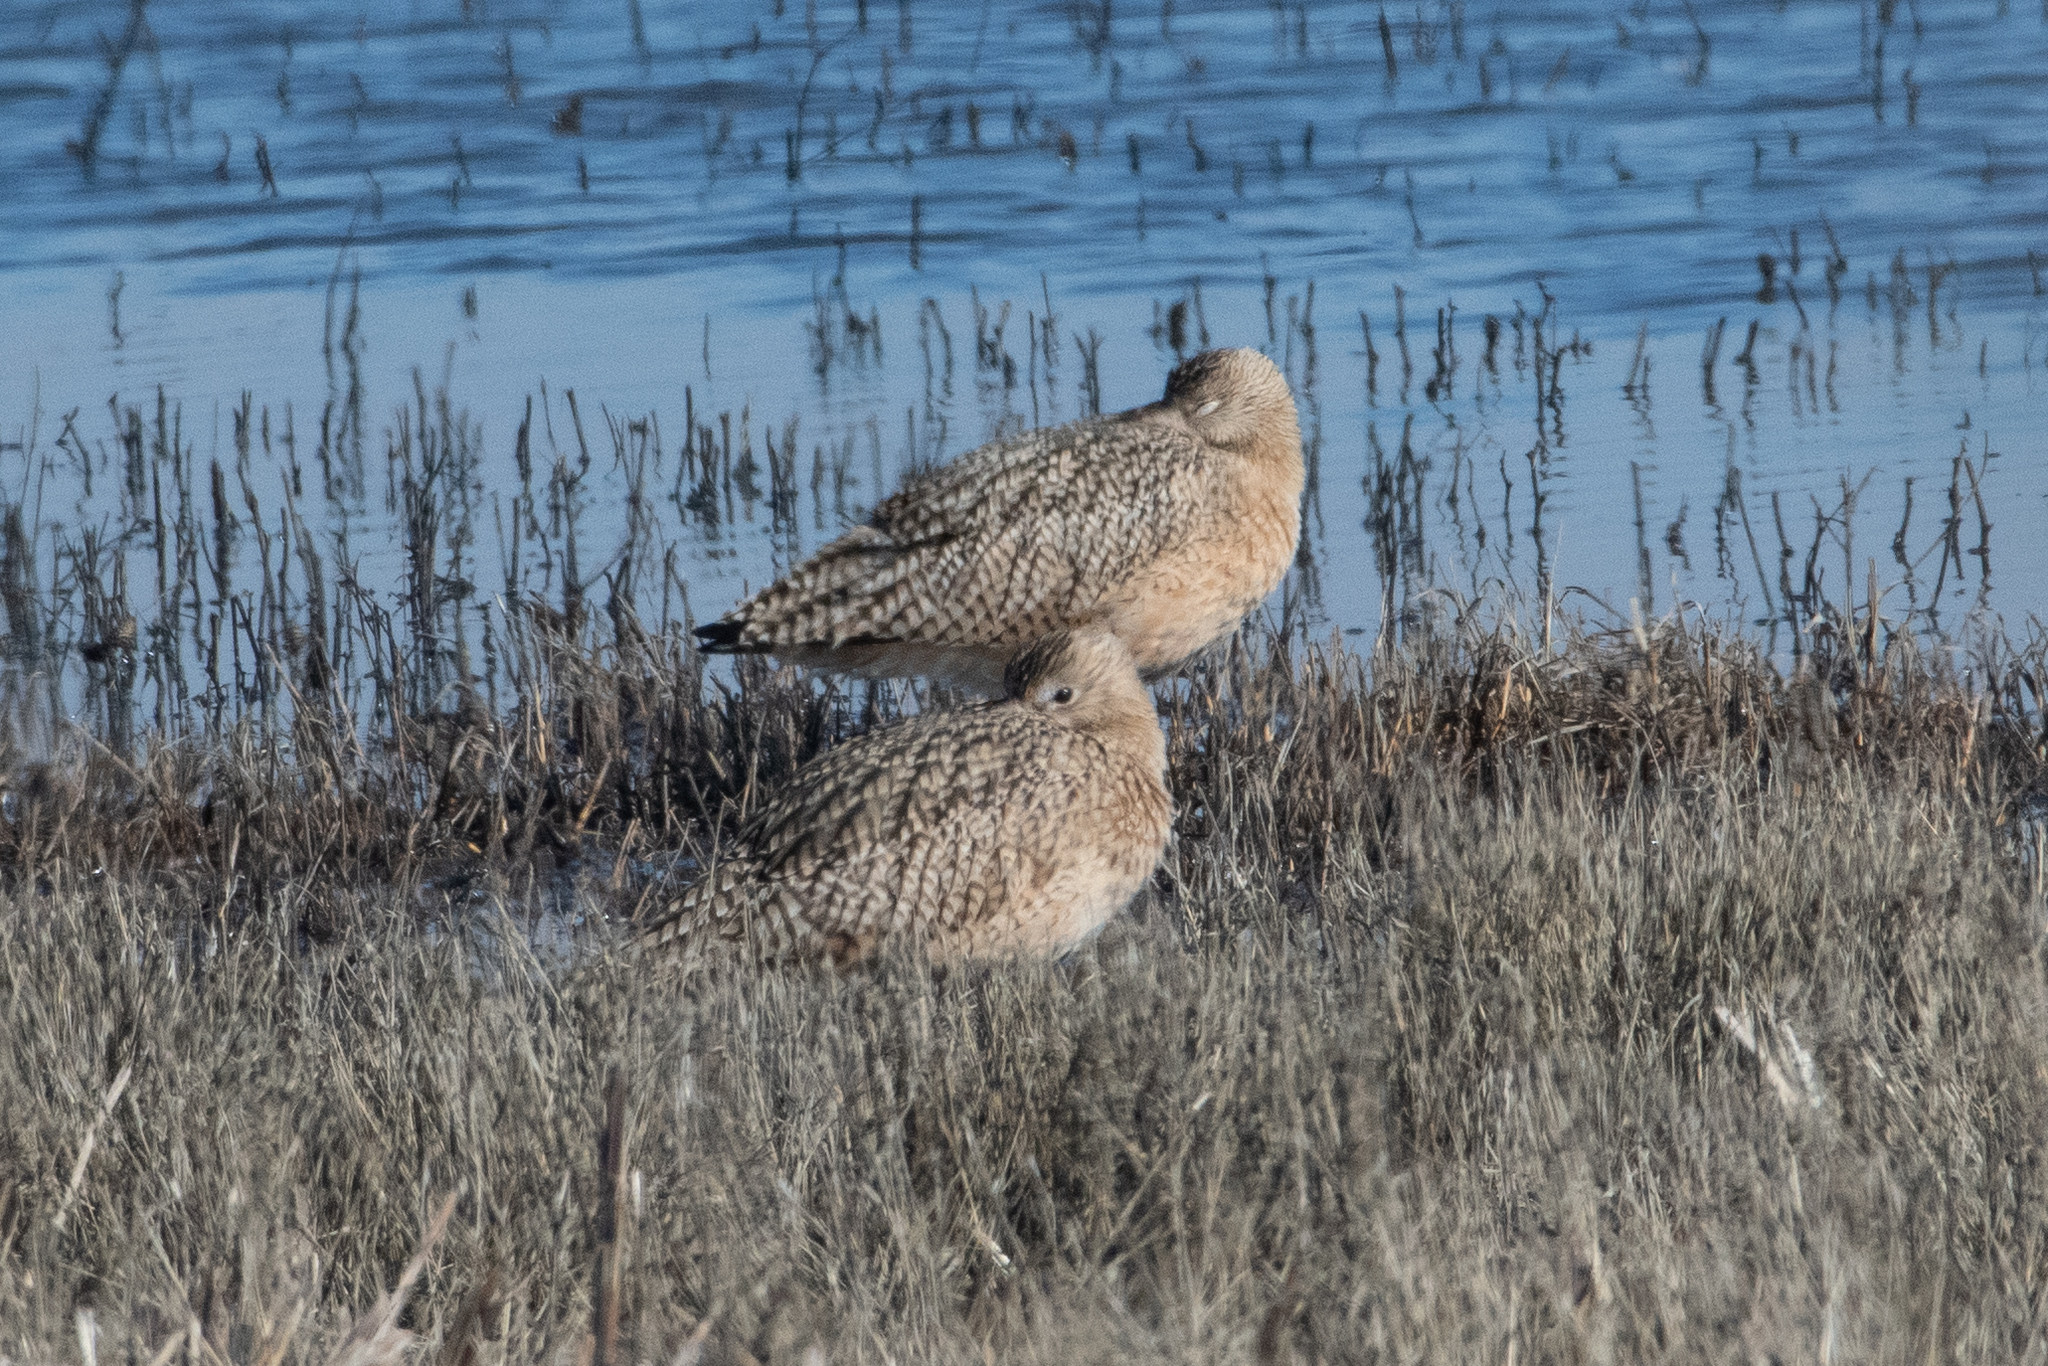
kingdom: Animalia
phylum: Chordata
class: Aves
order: Charadriiformes
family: Scolopacidae
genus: Numenius
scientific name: Numenius americanus
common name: Long-billed curlew
